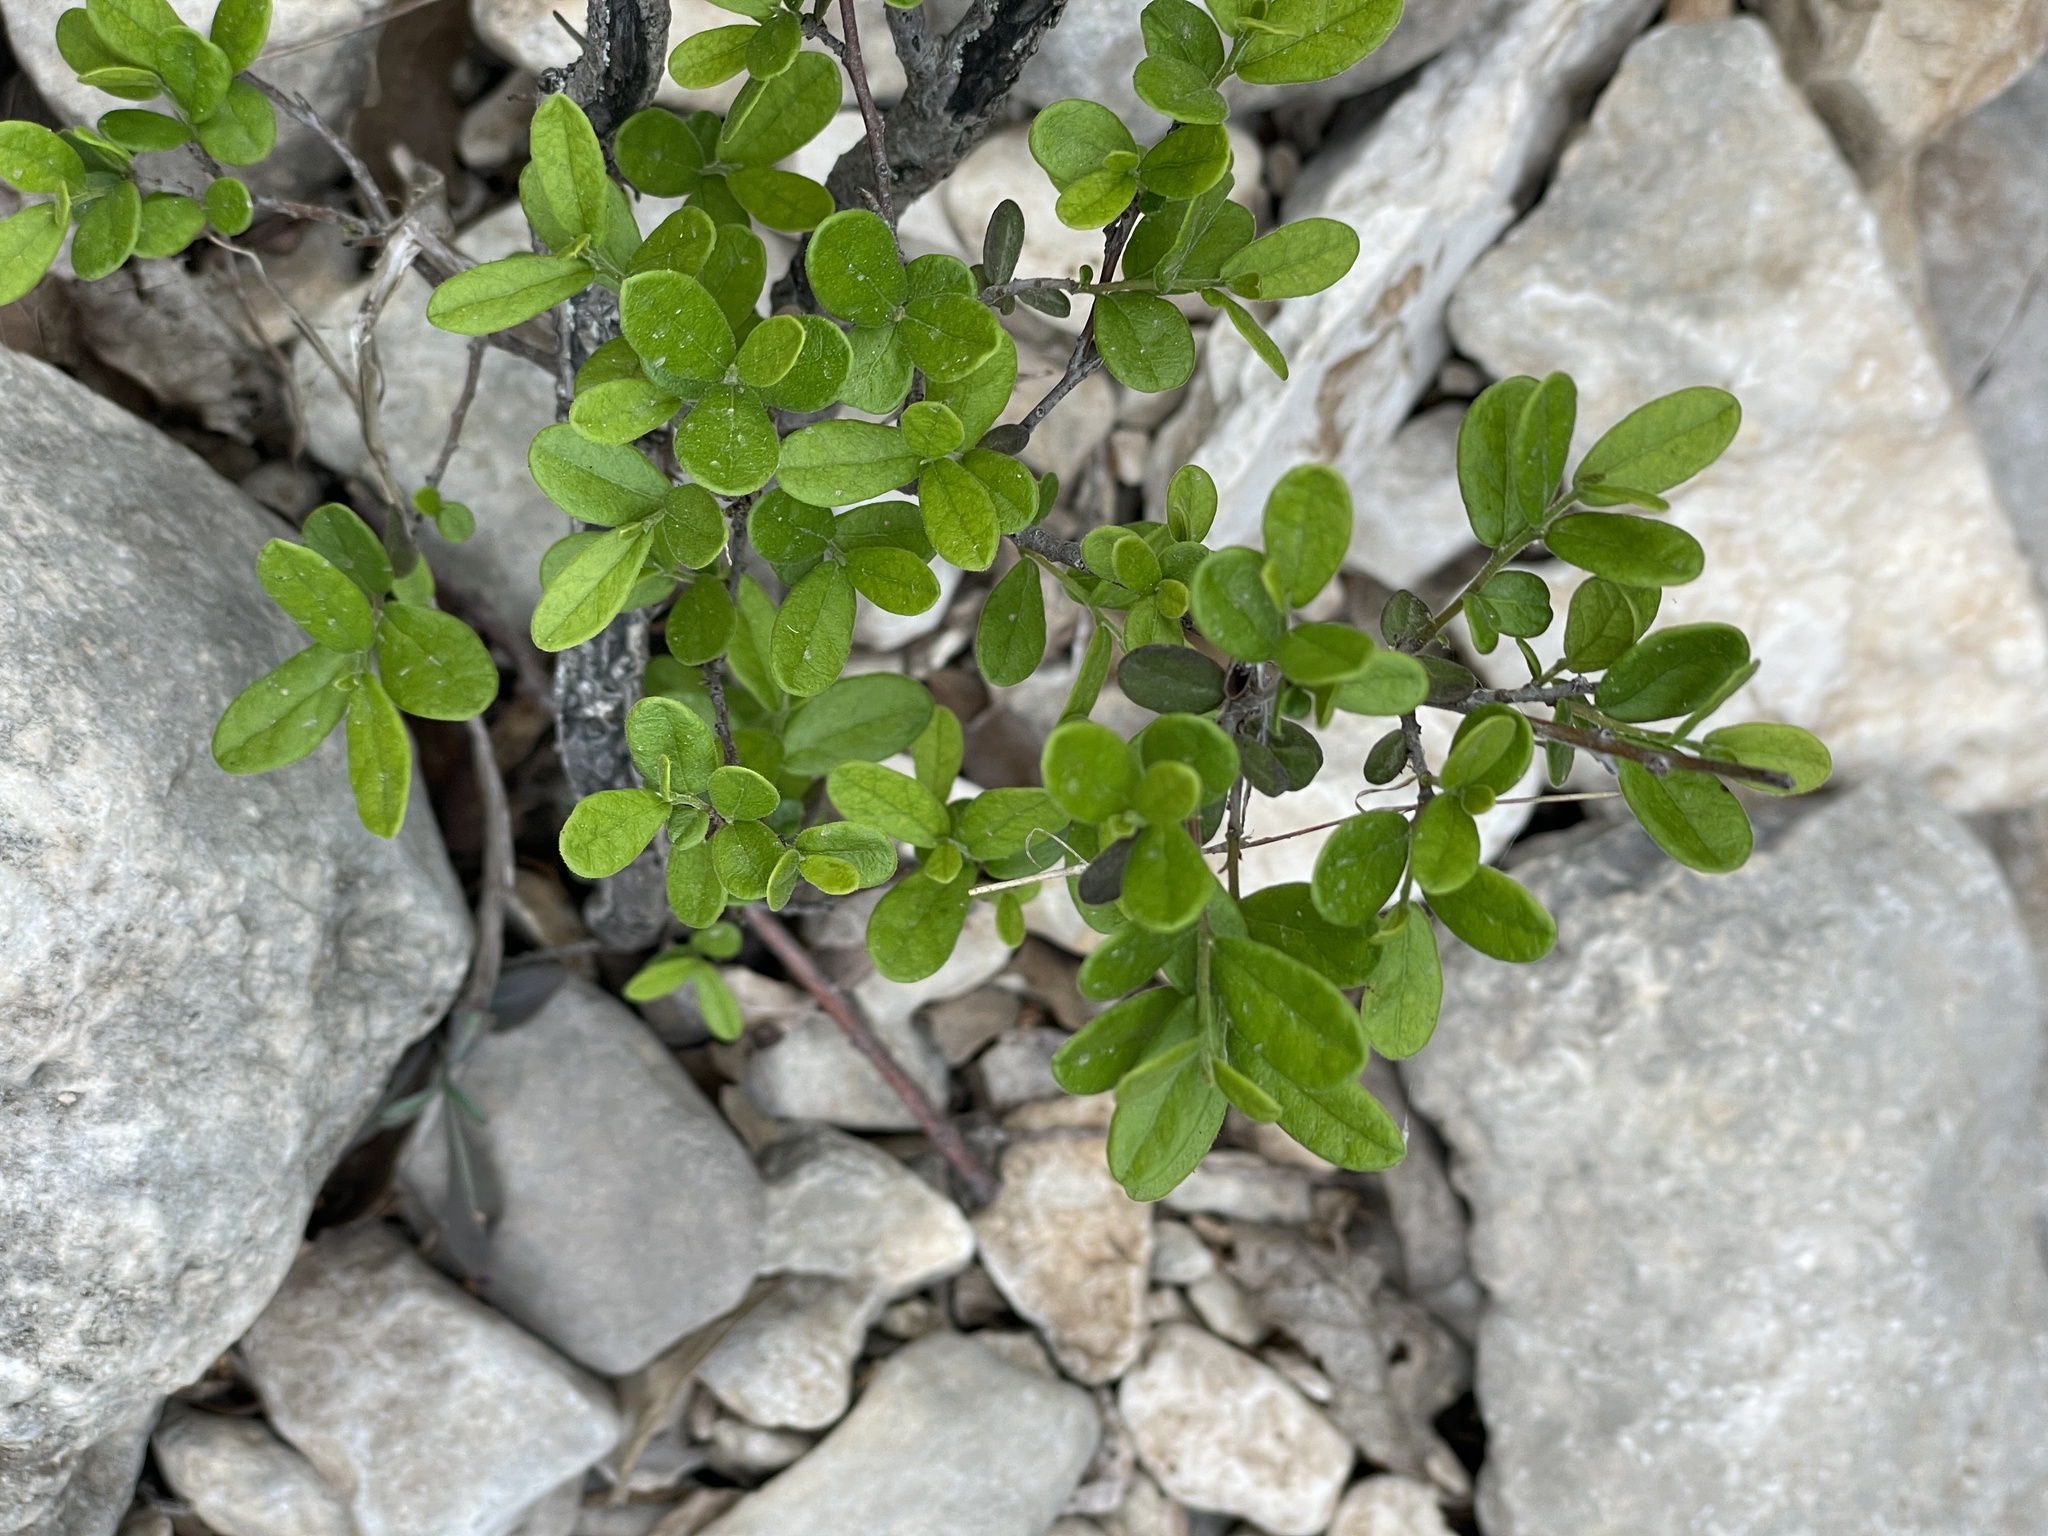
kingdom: Plantae
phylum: Tracheophyta
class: Magnoliopsida
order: Ericales
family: Ebenaceae
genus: Diospyros
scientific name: Diospyros texana
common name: Texas persimmon
